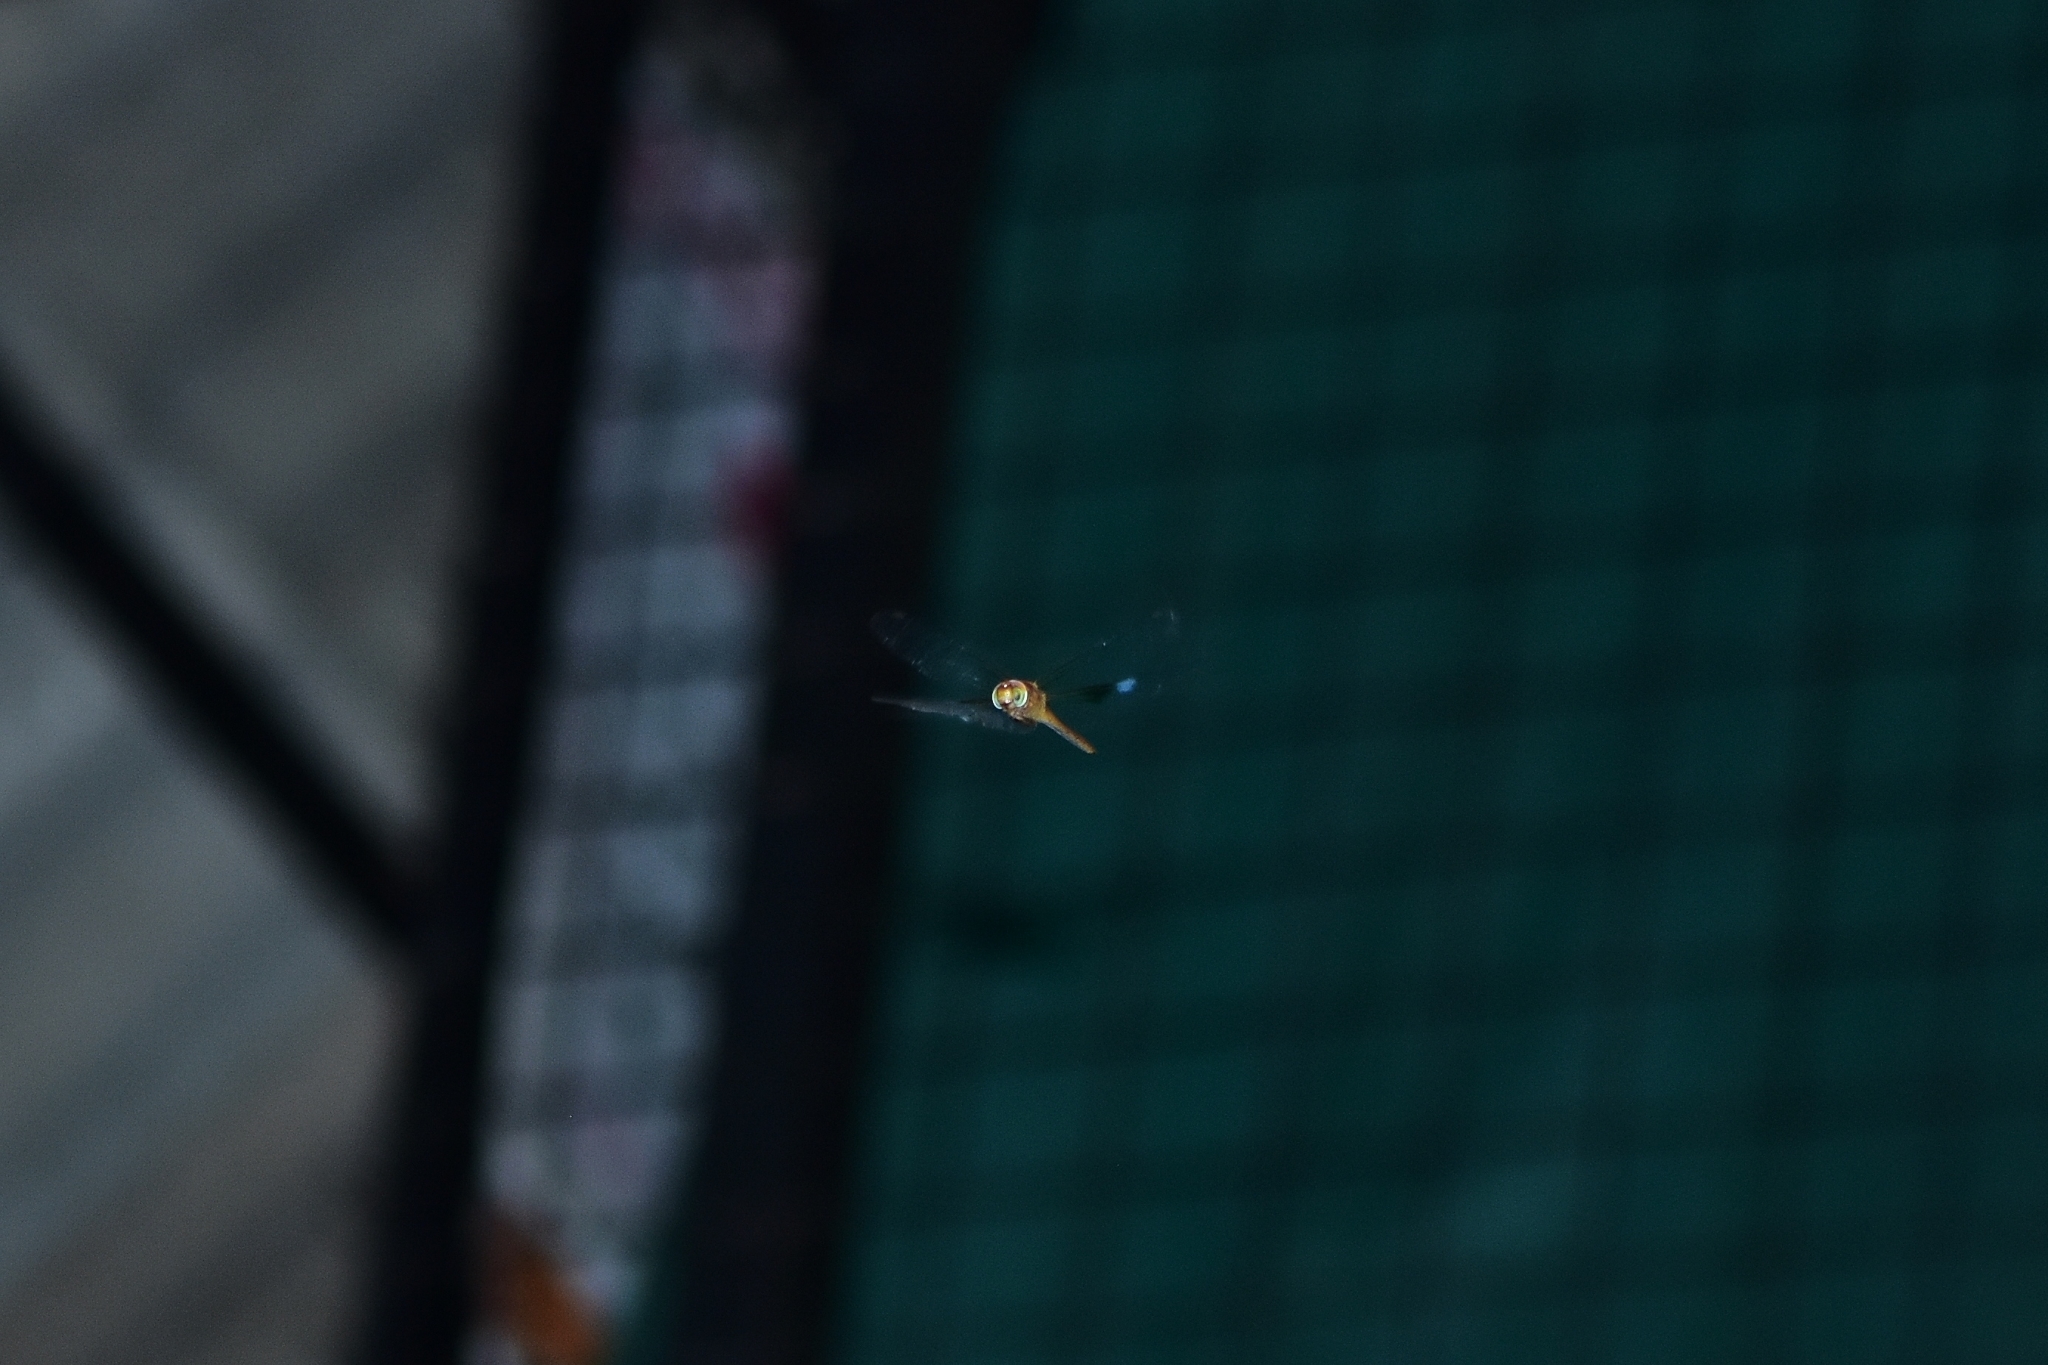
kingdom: Animalia
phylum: Arthropoda
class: Insecta
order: Odonata
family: Libellulidae
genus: Tholymis
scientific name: Tholymis tillarga
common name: Coral-tailed cloud wing
